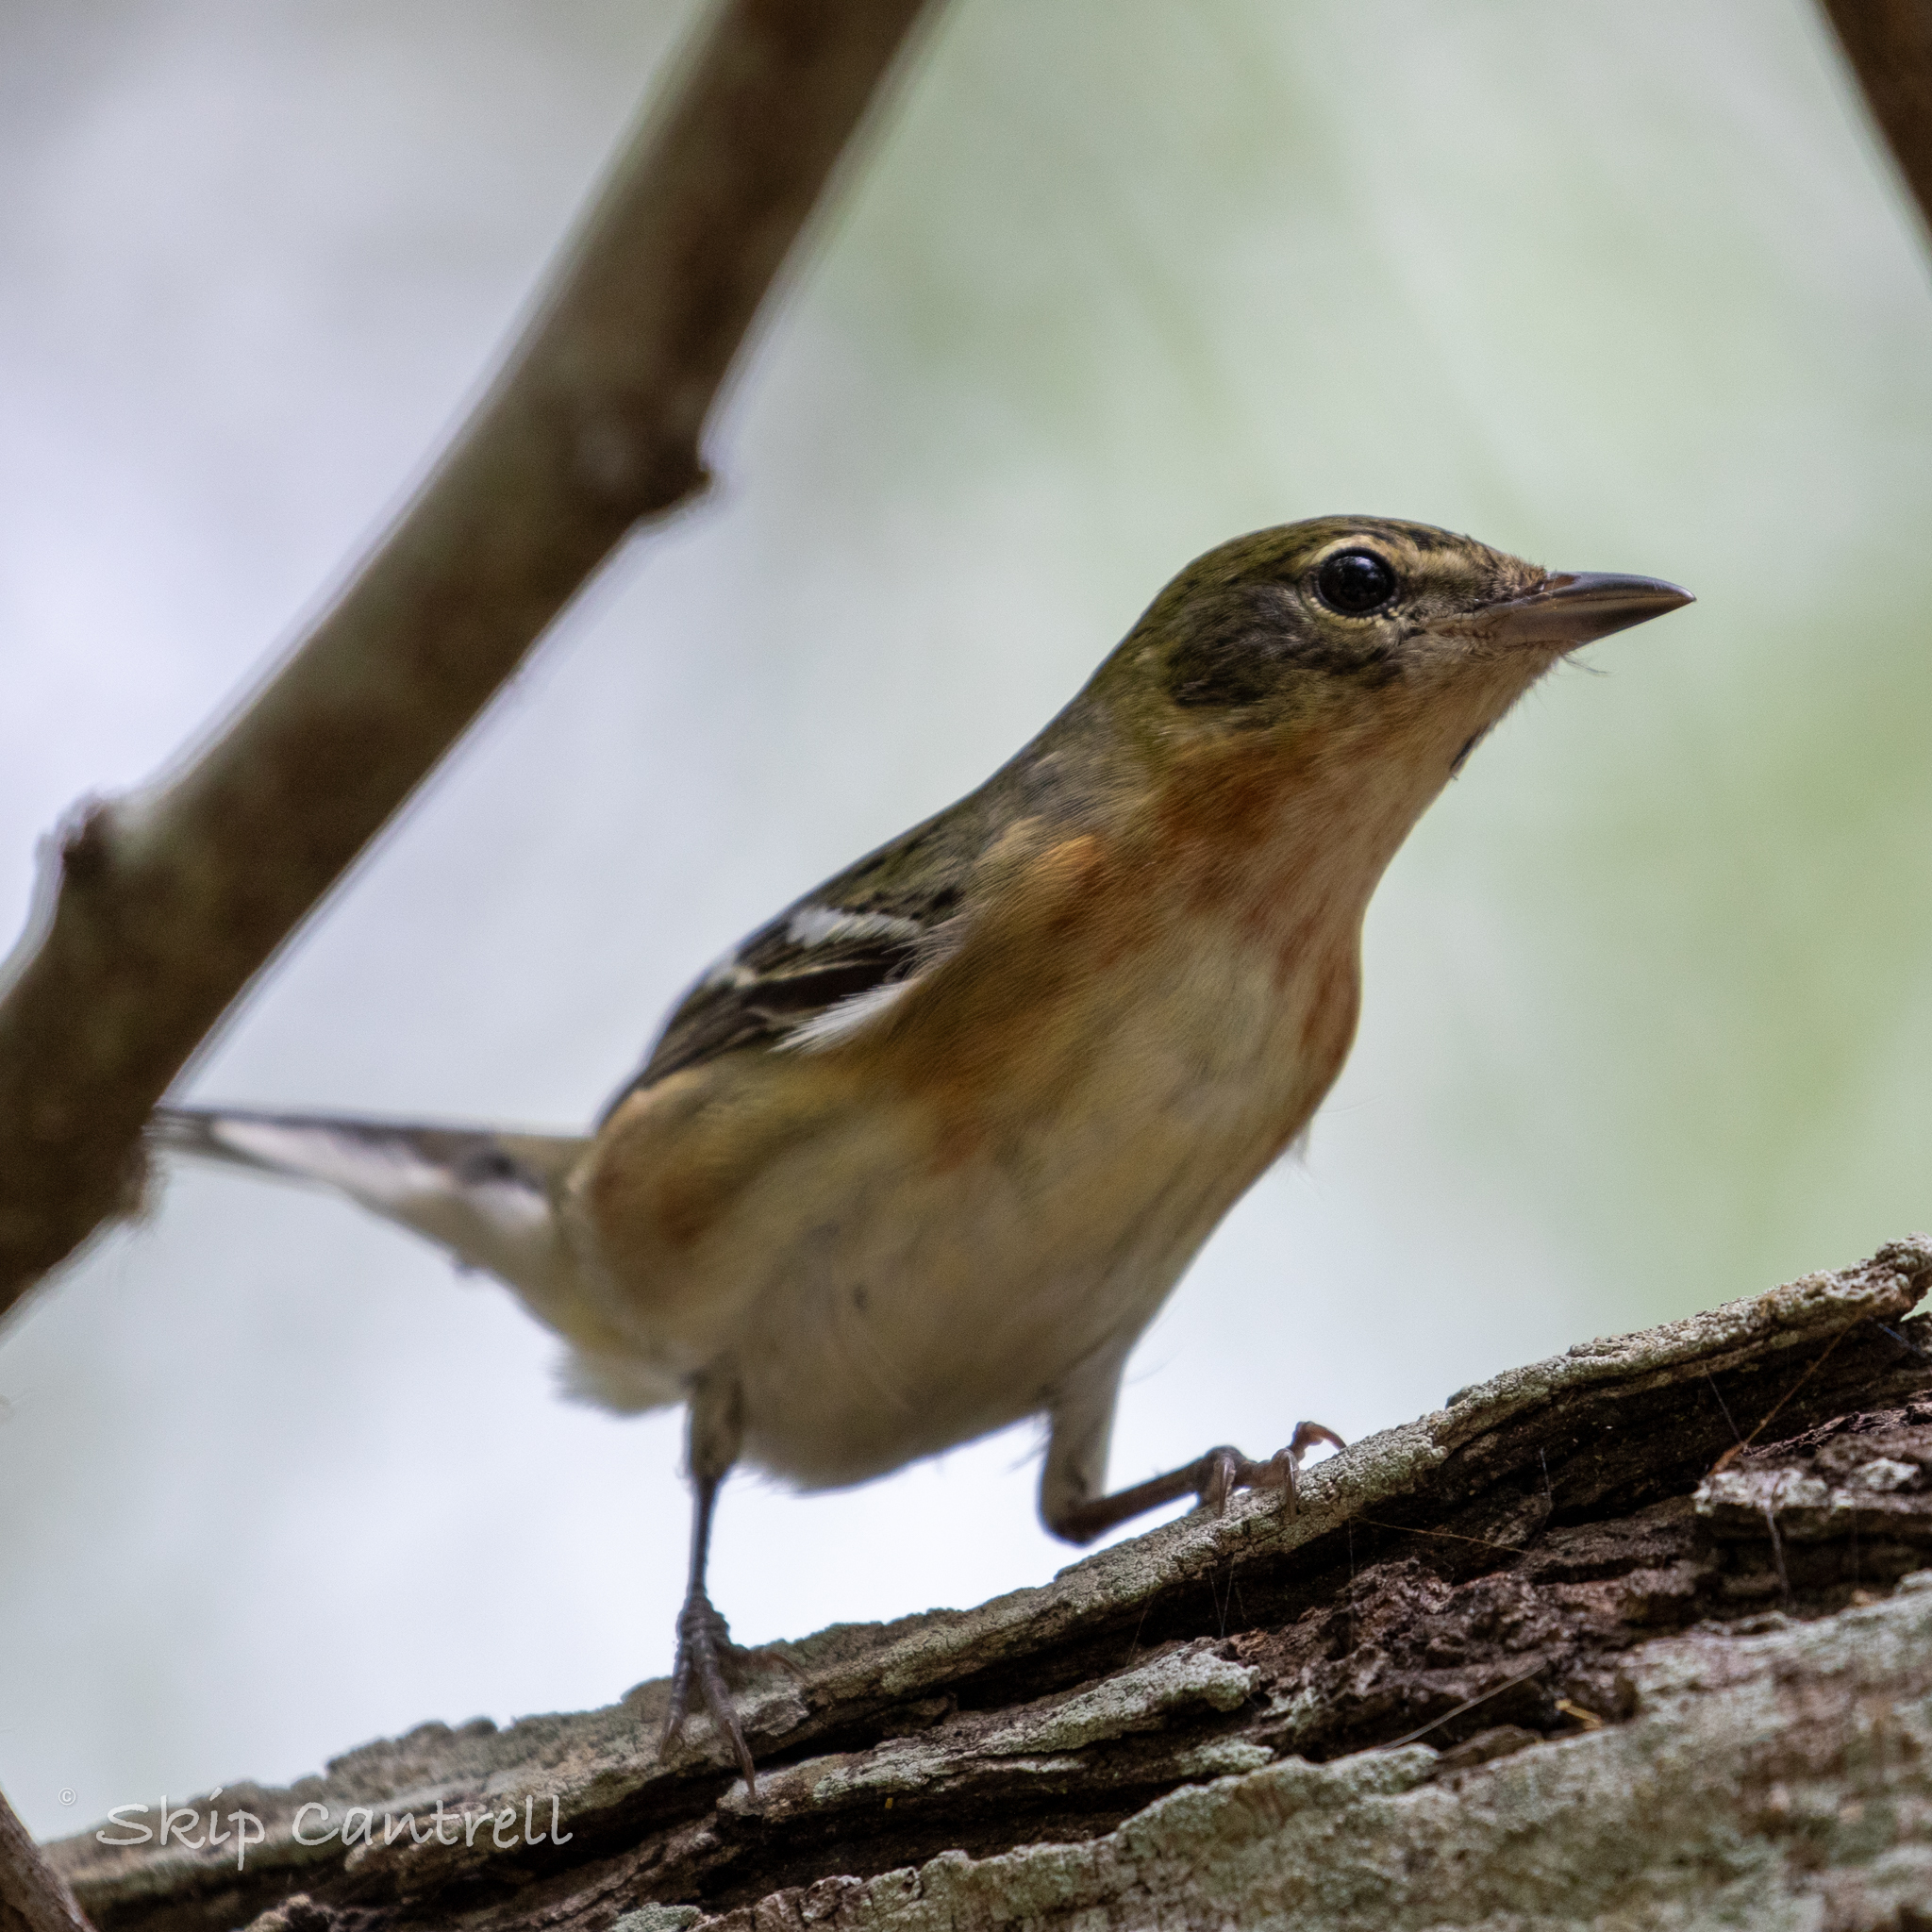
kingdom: Animalia
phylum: Chordata
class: Aves
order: Passeriformes
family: Parulidae
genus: Setophaga
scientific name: Setophaga castanea
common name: Bay-breasted warbler
